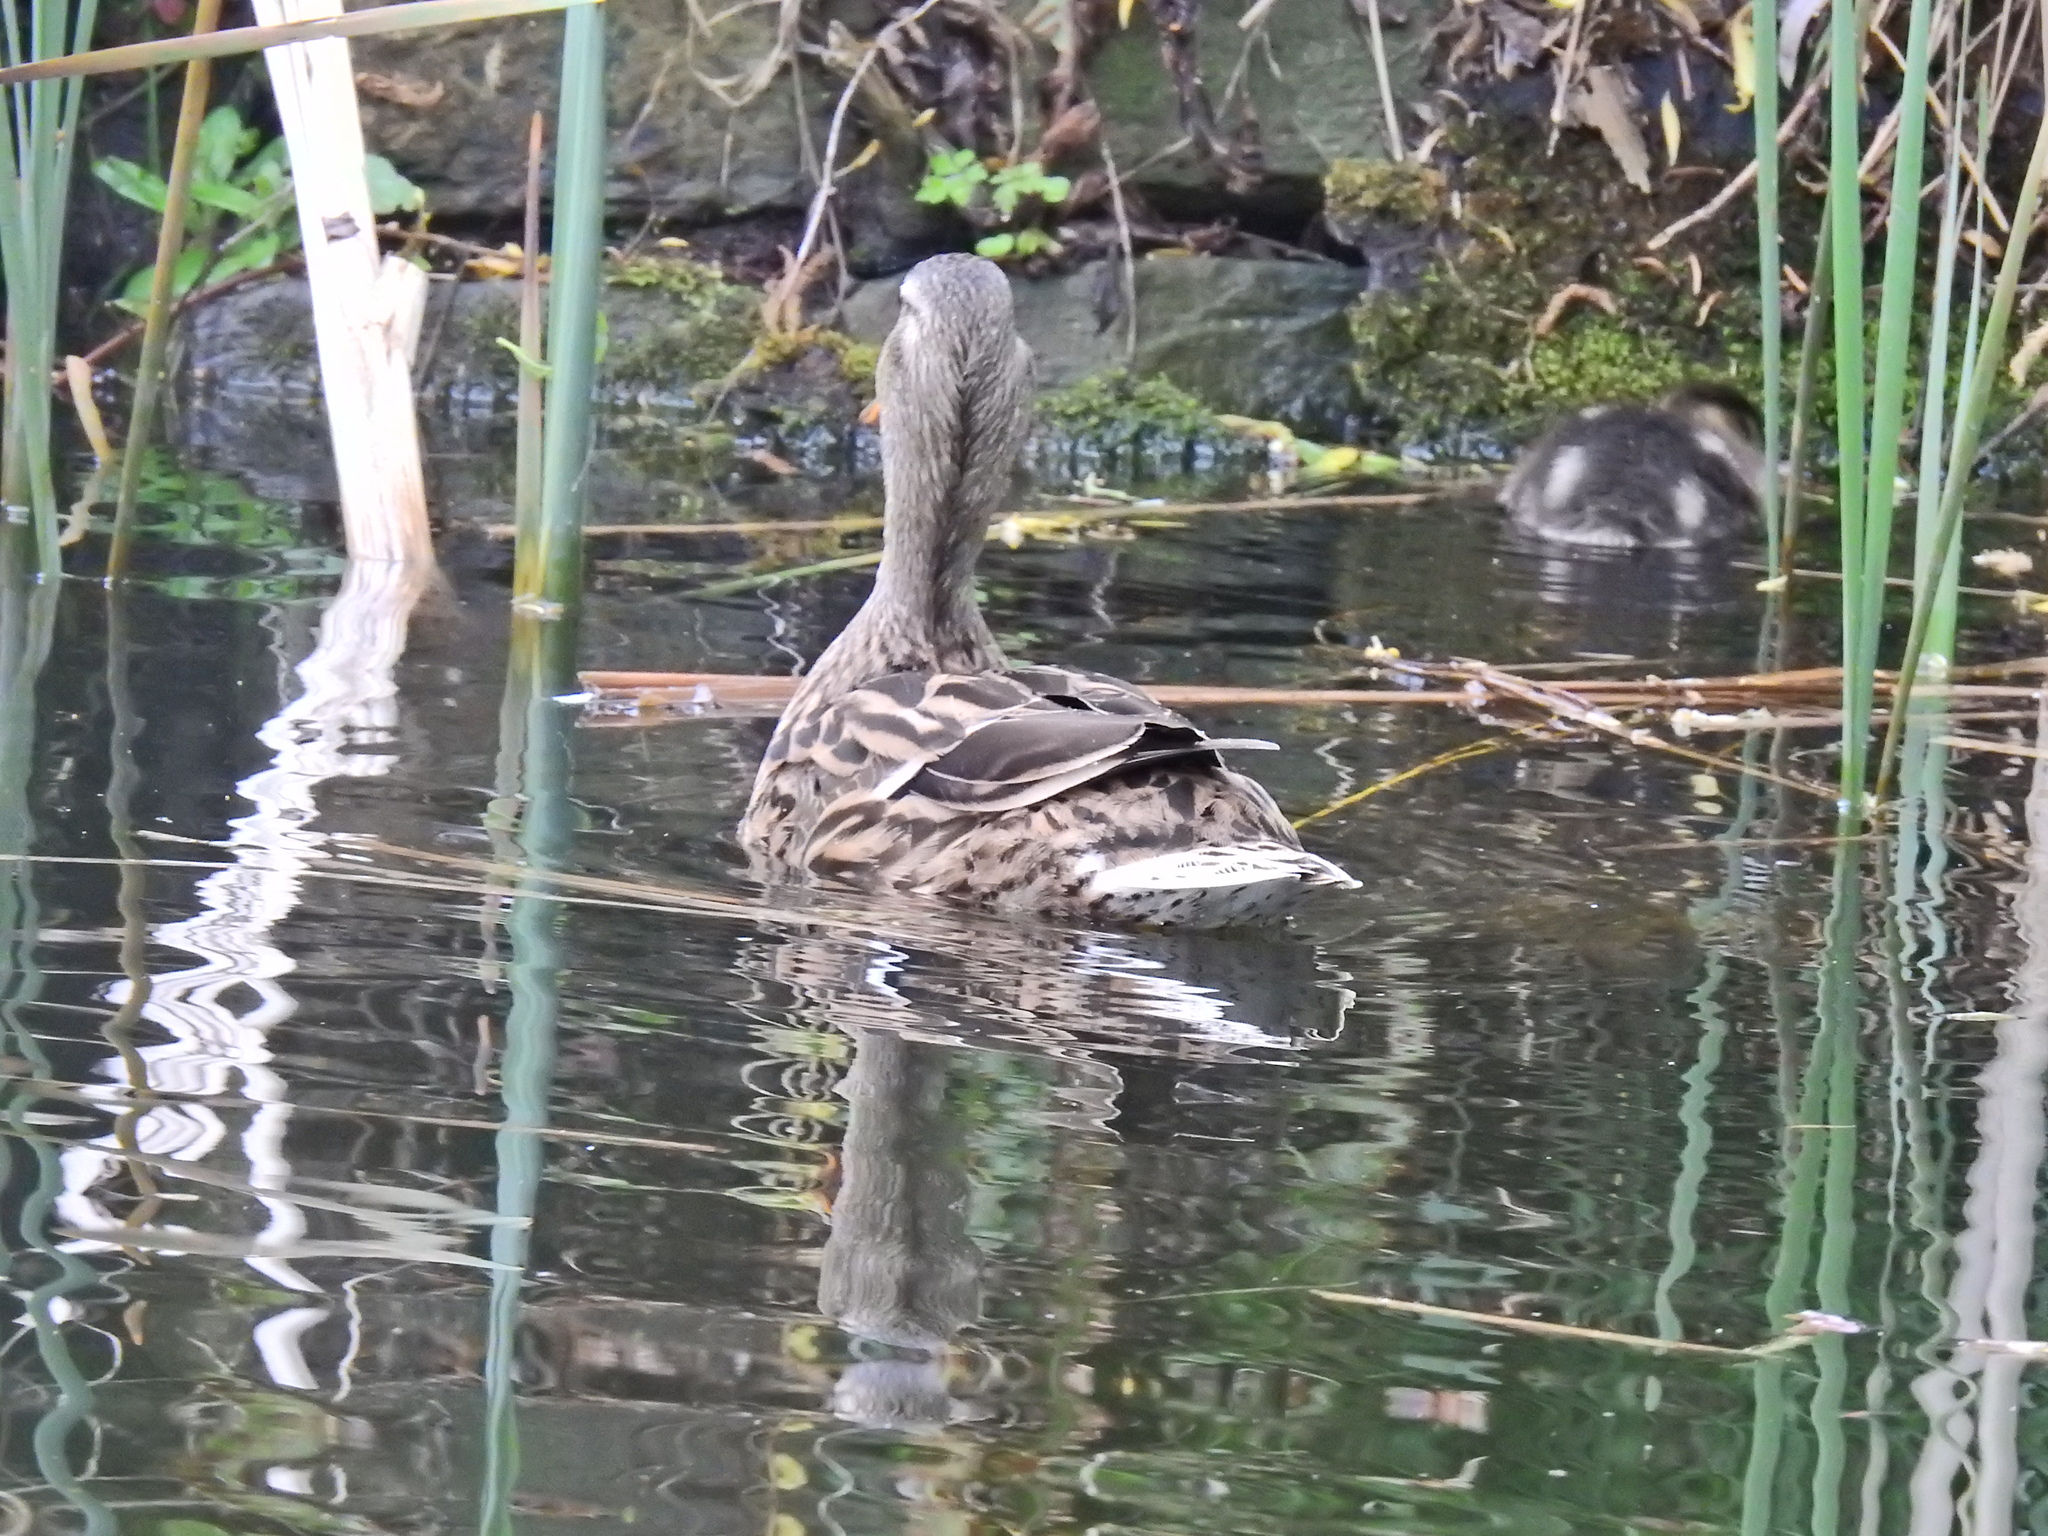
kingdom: Animalia
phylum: Chordata
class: Aves
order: Anseriformes
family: Anatidae
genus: Anas
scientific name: Anas platyrhynchos
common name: Mallard
